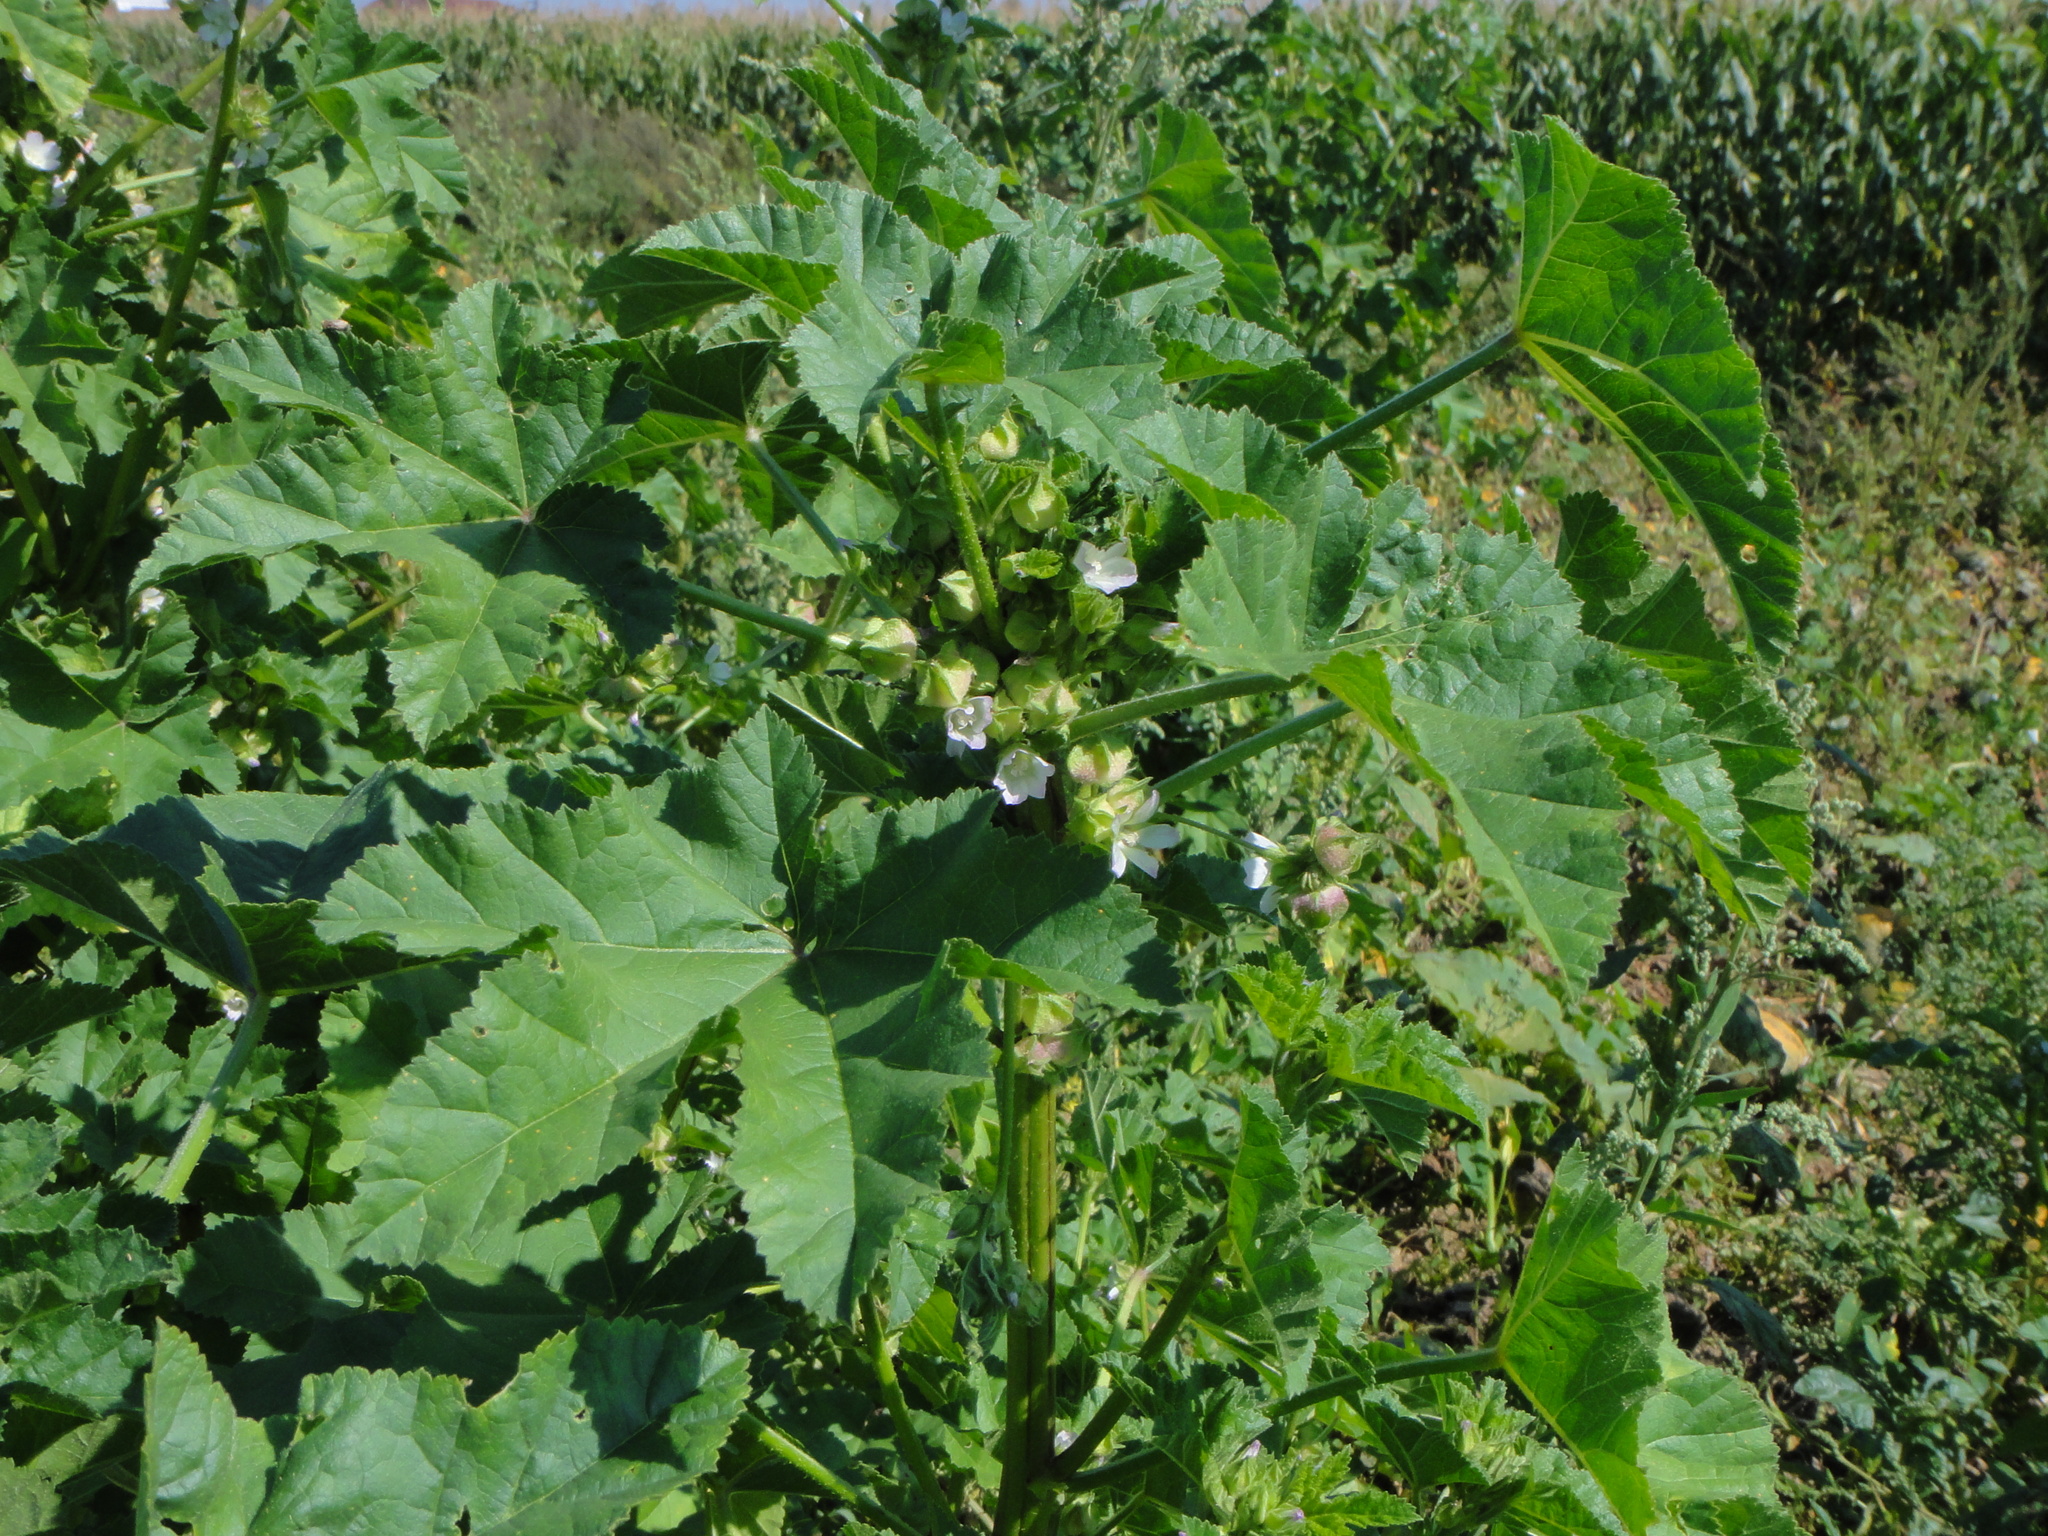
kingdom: Plantae
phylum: Tracheophyta
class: Magnoliopsida
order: Malvales
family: Malvaceae
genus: Malva
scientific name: Malva verticillata
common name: Chinese mallow
